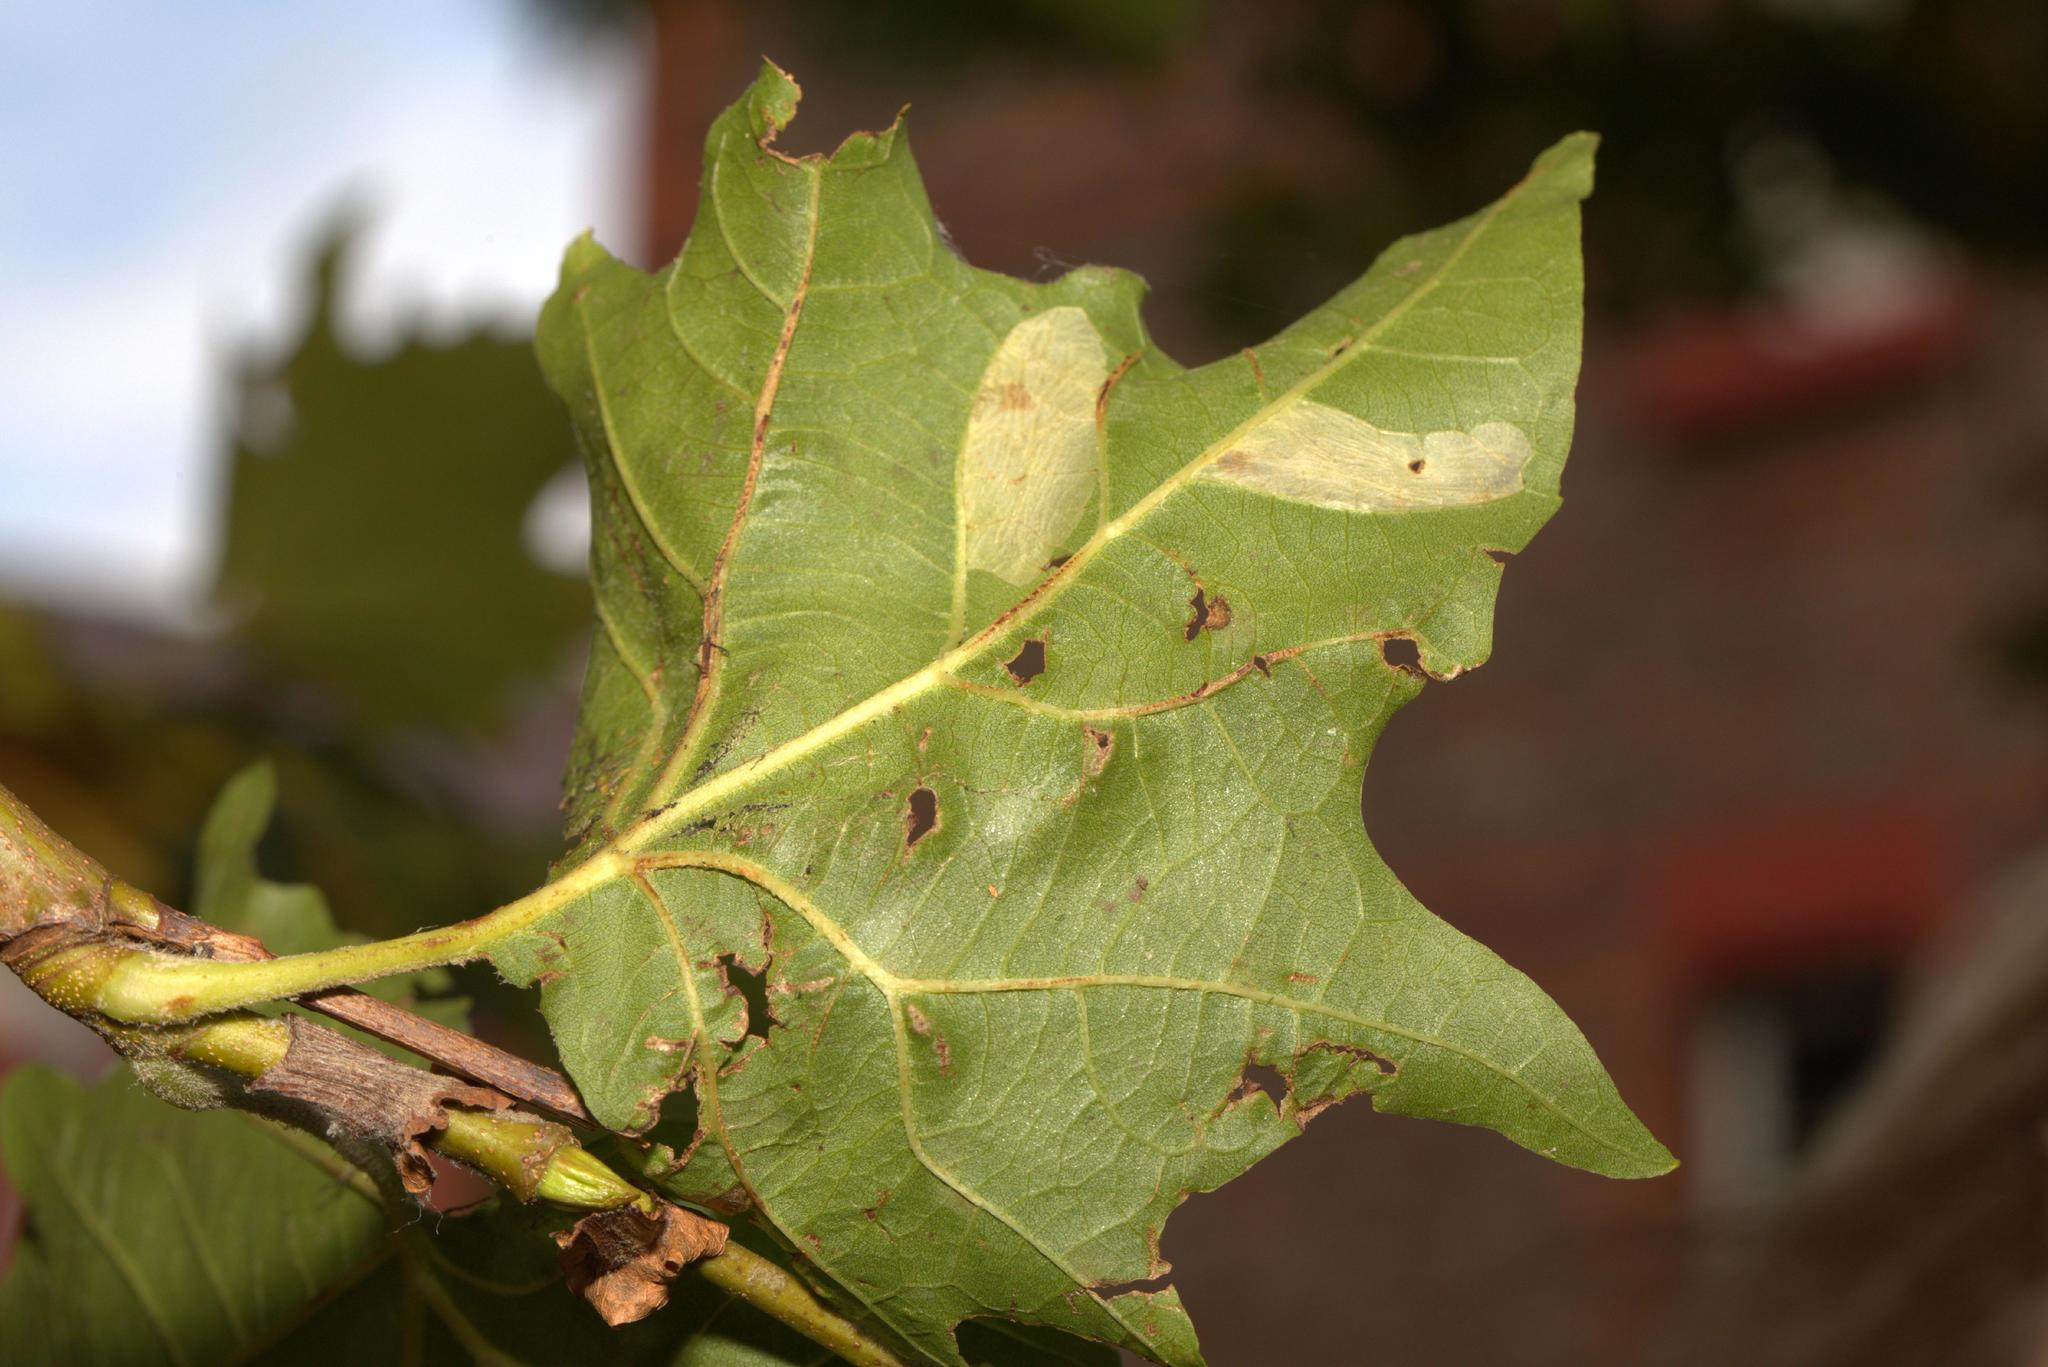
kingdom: Animalia
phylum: Arthropoda
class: Insecta
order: Lepidoptera
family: Gracillariidae
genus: Phyllonorycter
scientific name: Phyllonorycter platani
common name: London midget
